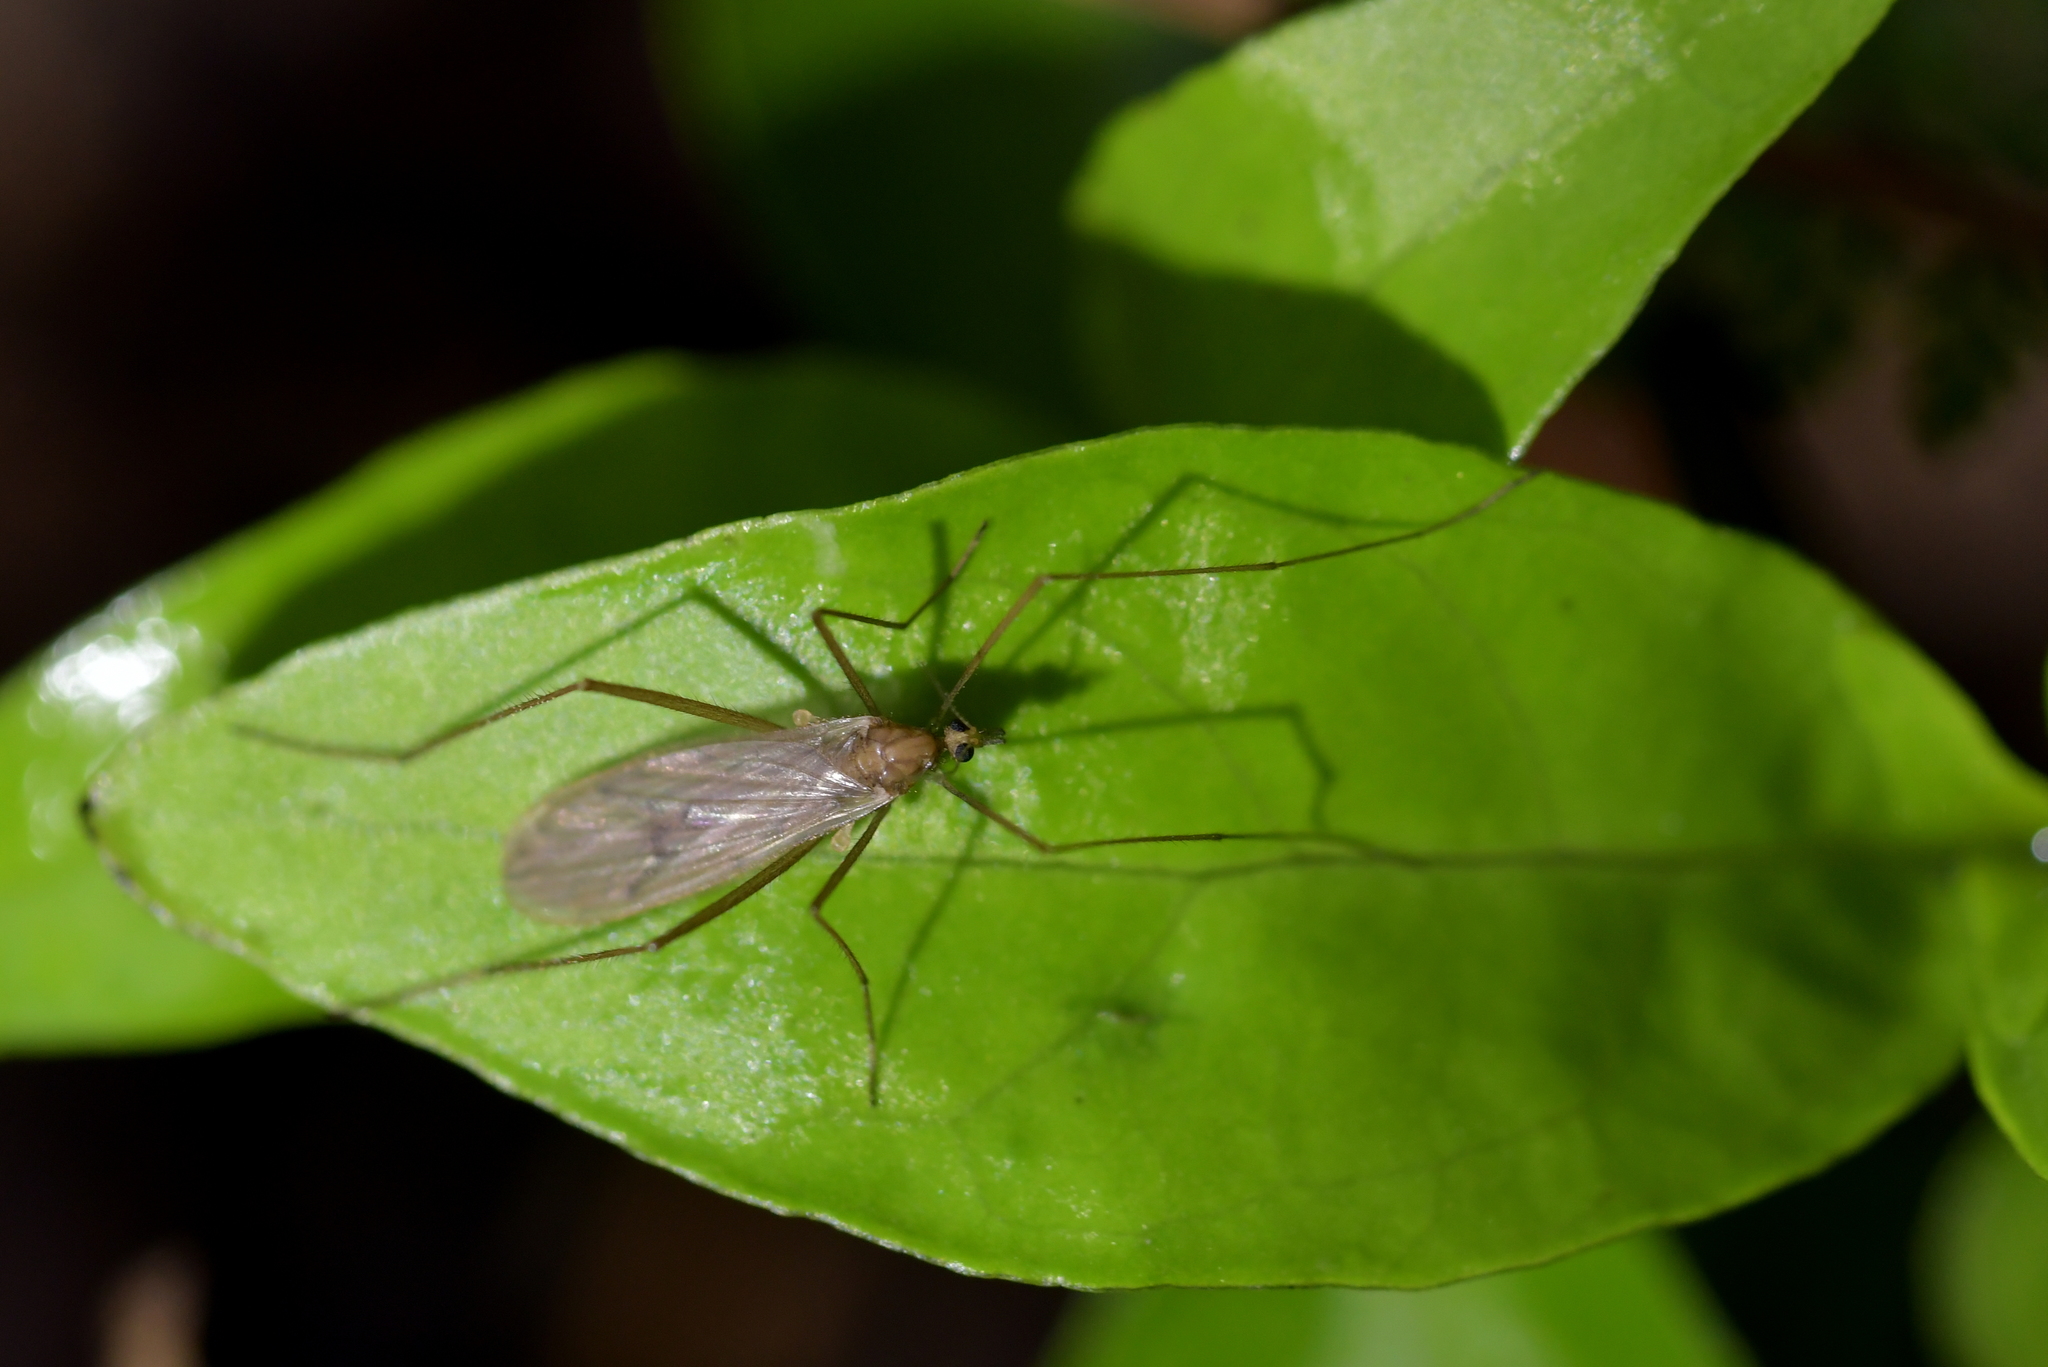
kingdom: Animalia
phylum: Arthropoda
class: Insecta
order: Diptera
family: Limoniidae
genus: Amphineurus
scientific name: Amphineurus insulsus
